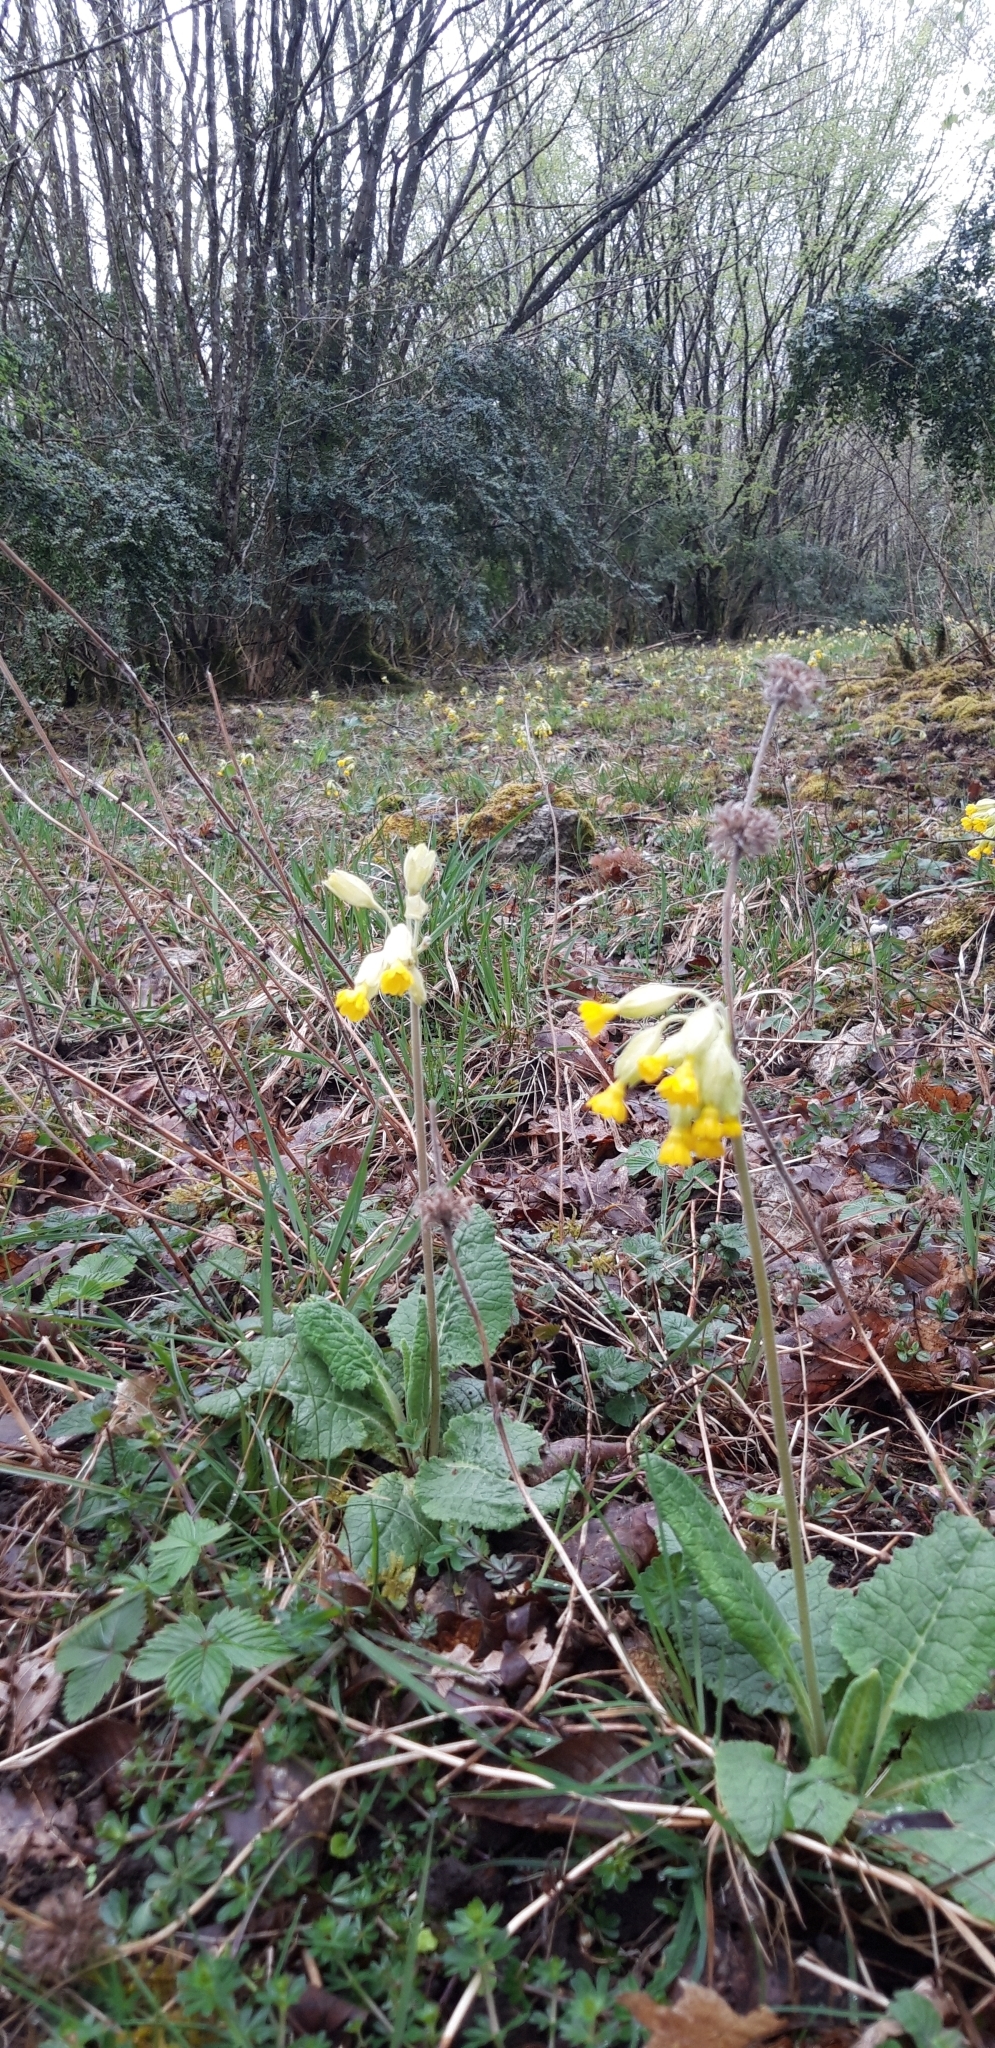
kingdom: Plantae
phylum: Tracheophyta
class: Magnoliopsida
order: Ericales
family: Primulaceae
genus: Primula
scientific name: Primula veris
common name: Cowslip
